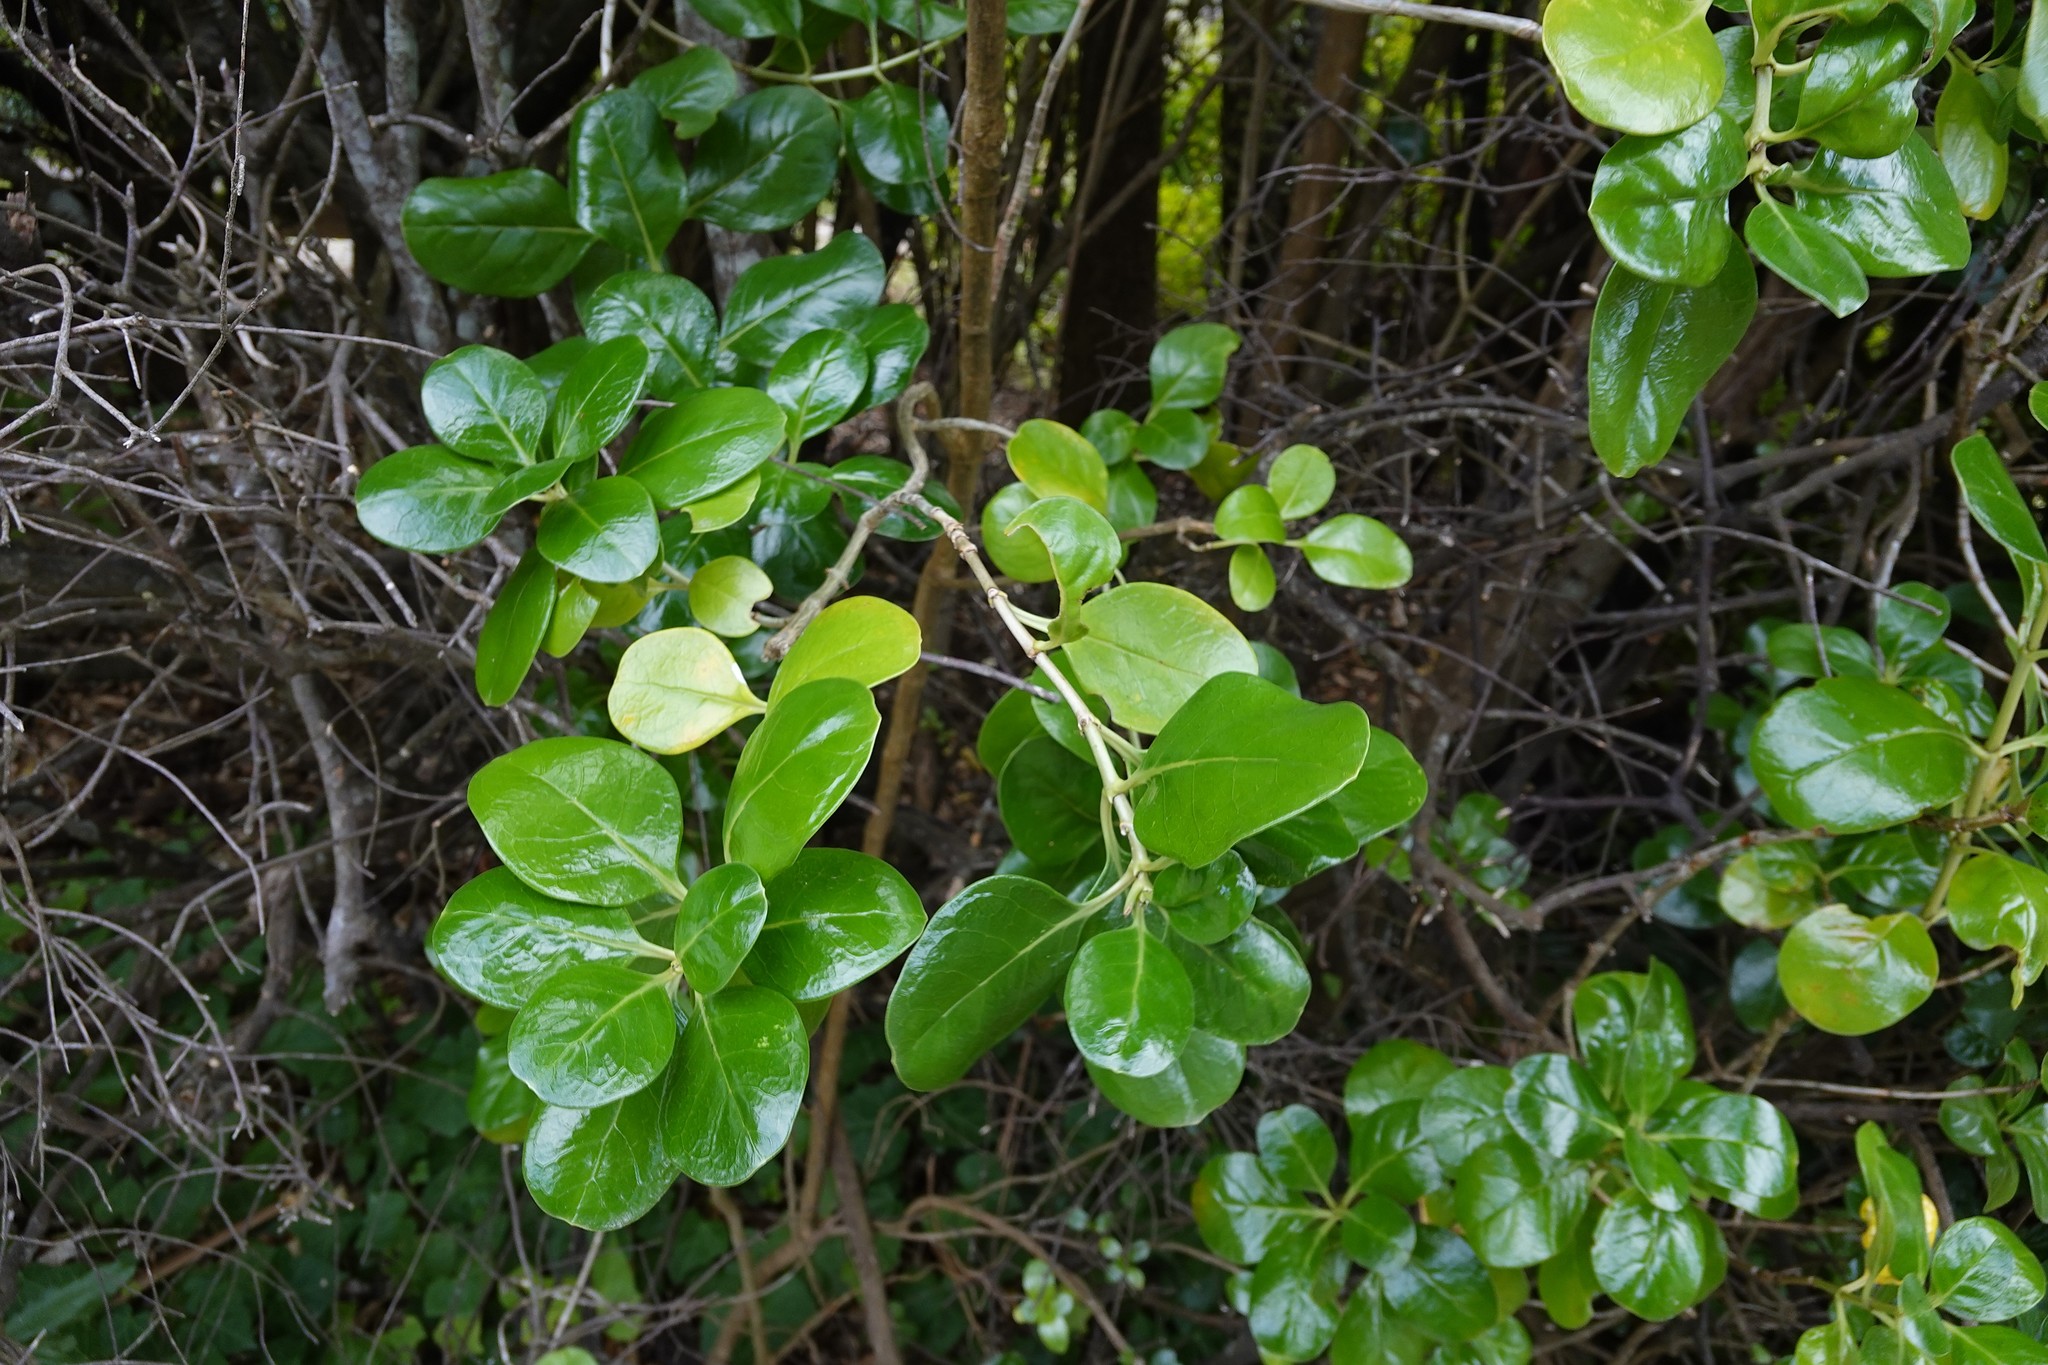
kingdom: Plantae
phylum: Tracheophyta
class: Magnoliopsida
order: Gentianales
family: Rubiaceae
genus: Coprosma
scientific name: Coprosma repens
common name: Tree bedstraw
